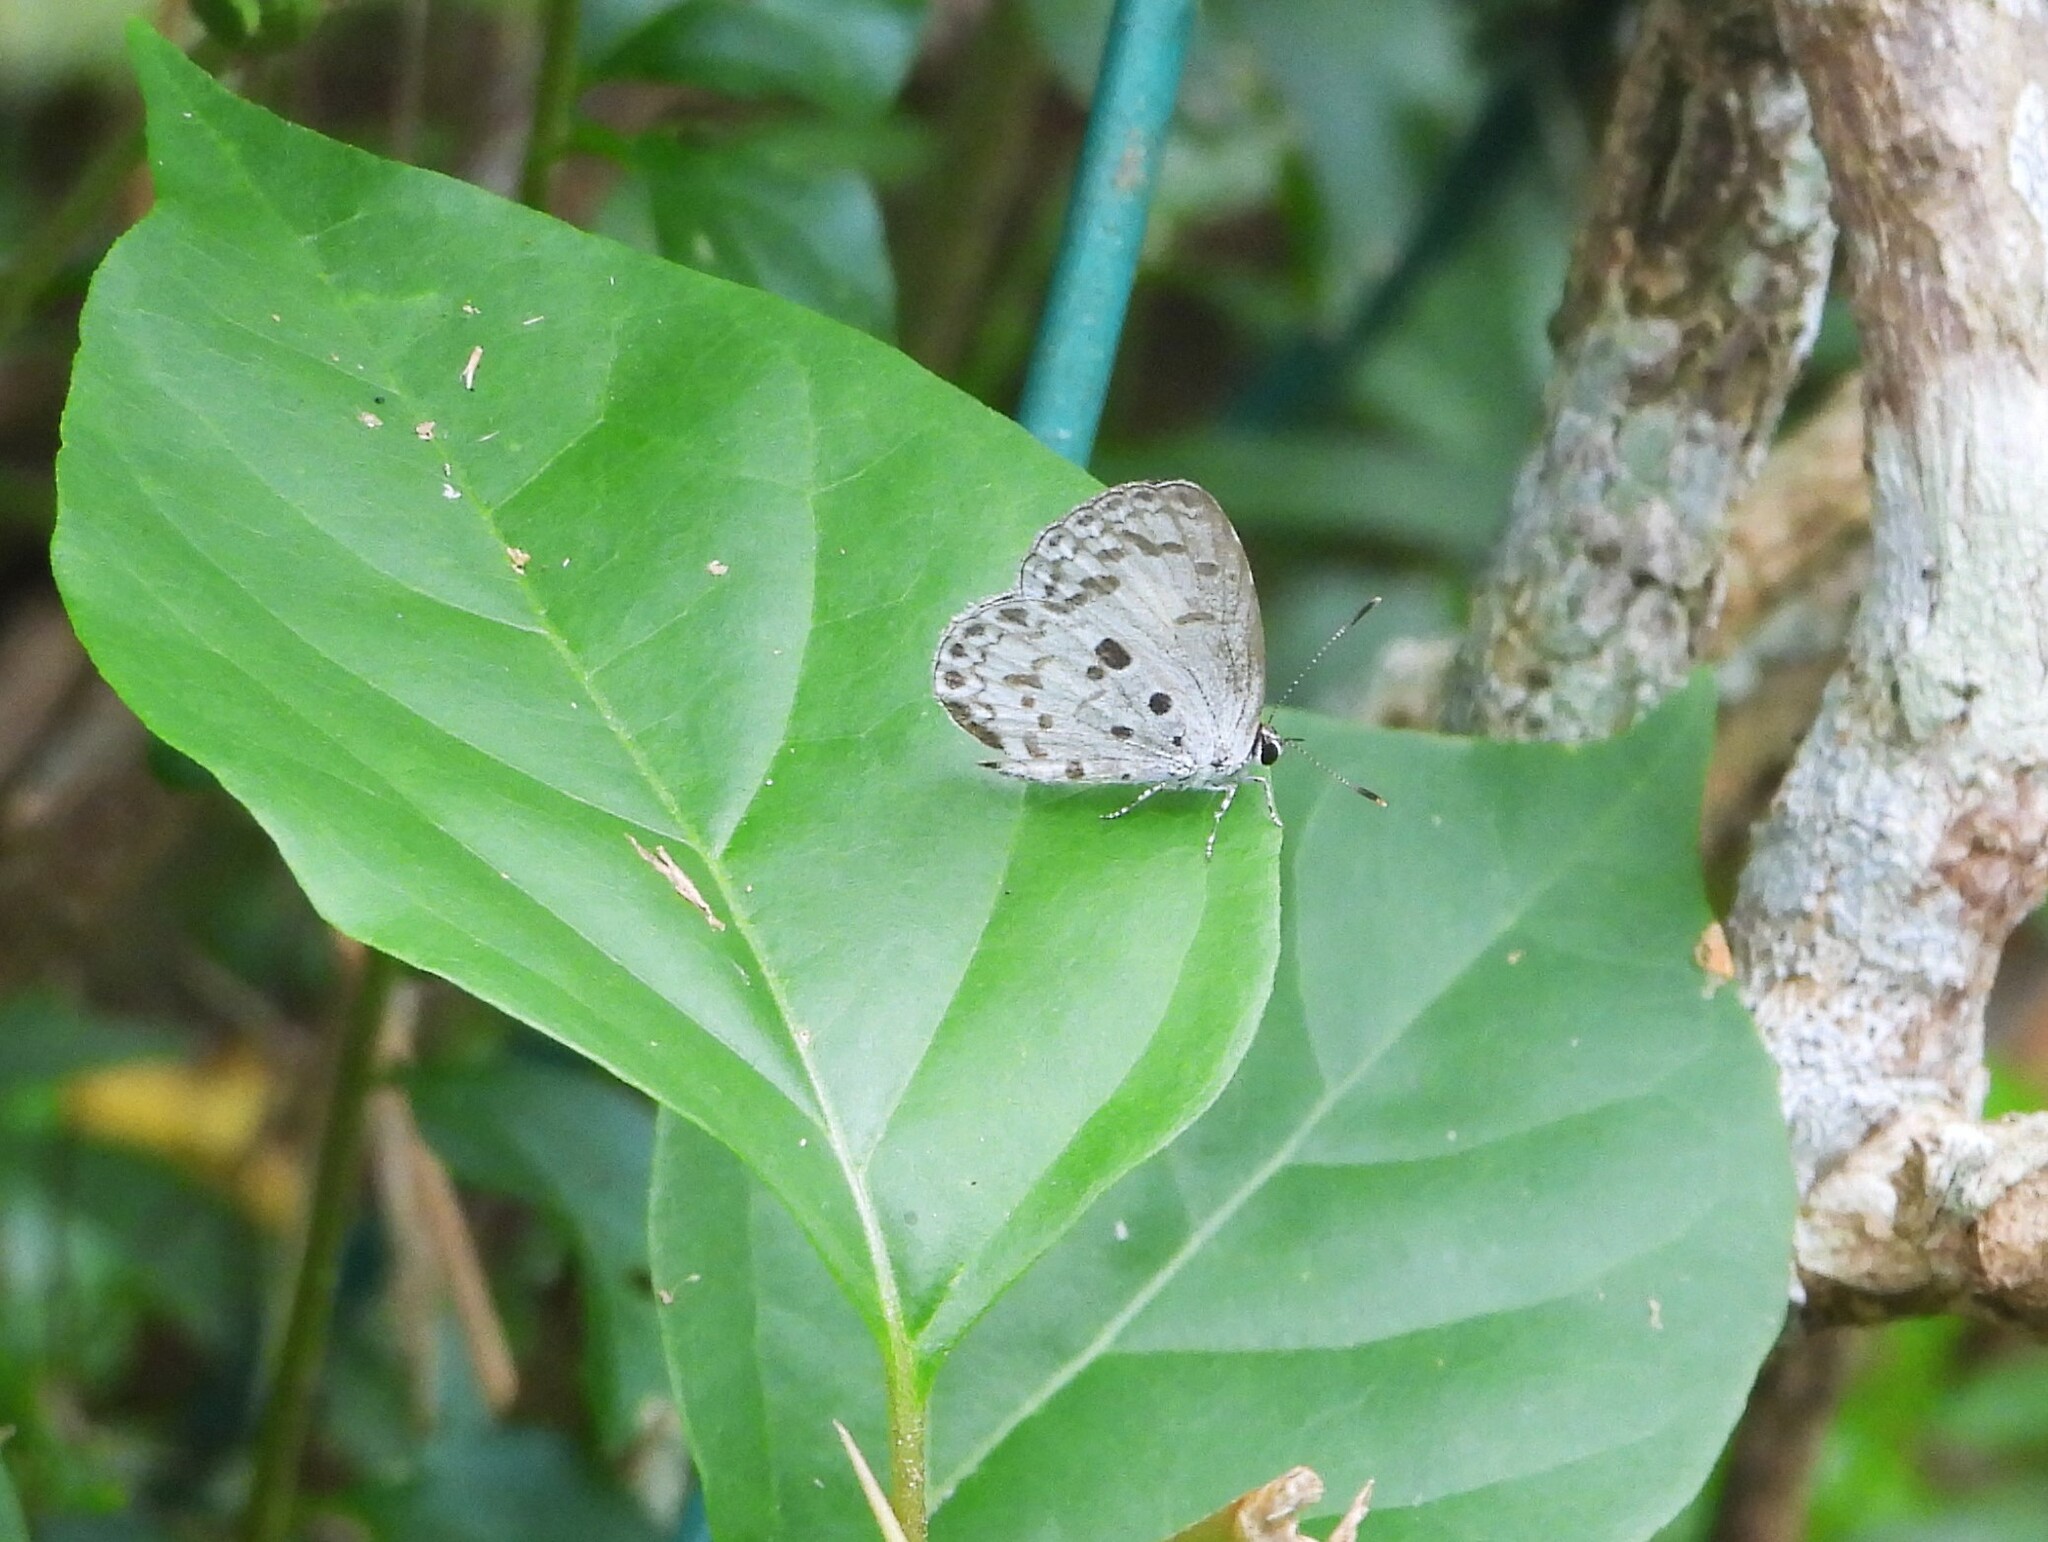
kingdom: Animalia
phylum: Arthropoda
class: Insecta
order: Lepidoptera
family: Lycaenidae
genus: Acytolepis
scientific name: Acytolepis puspa
